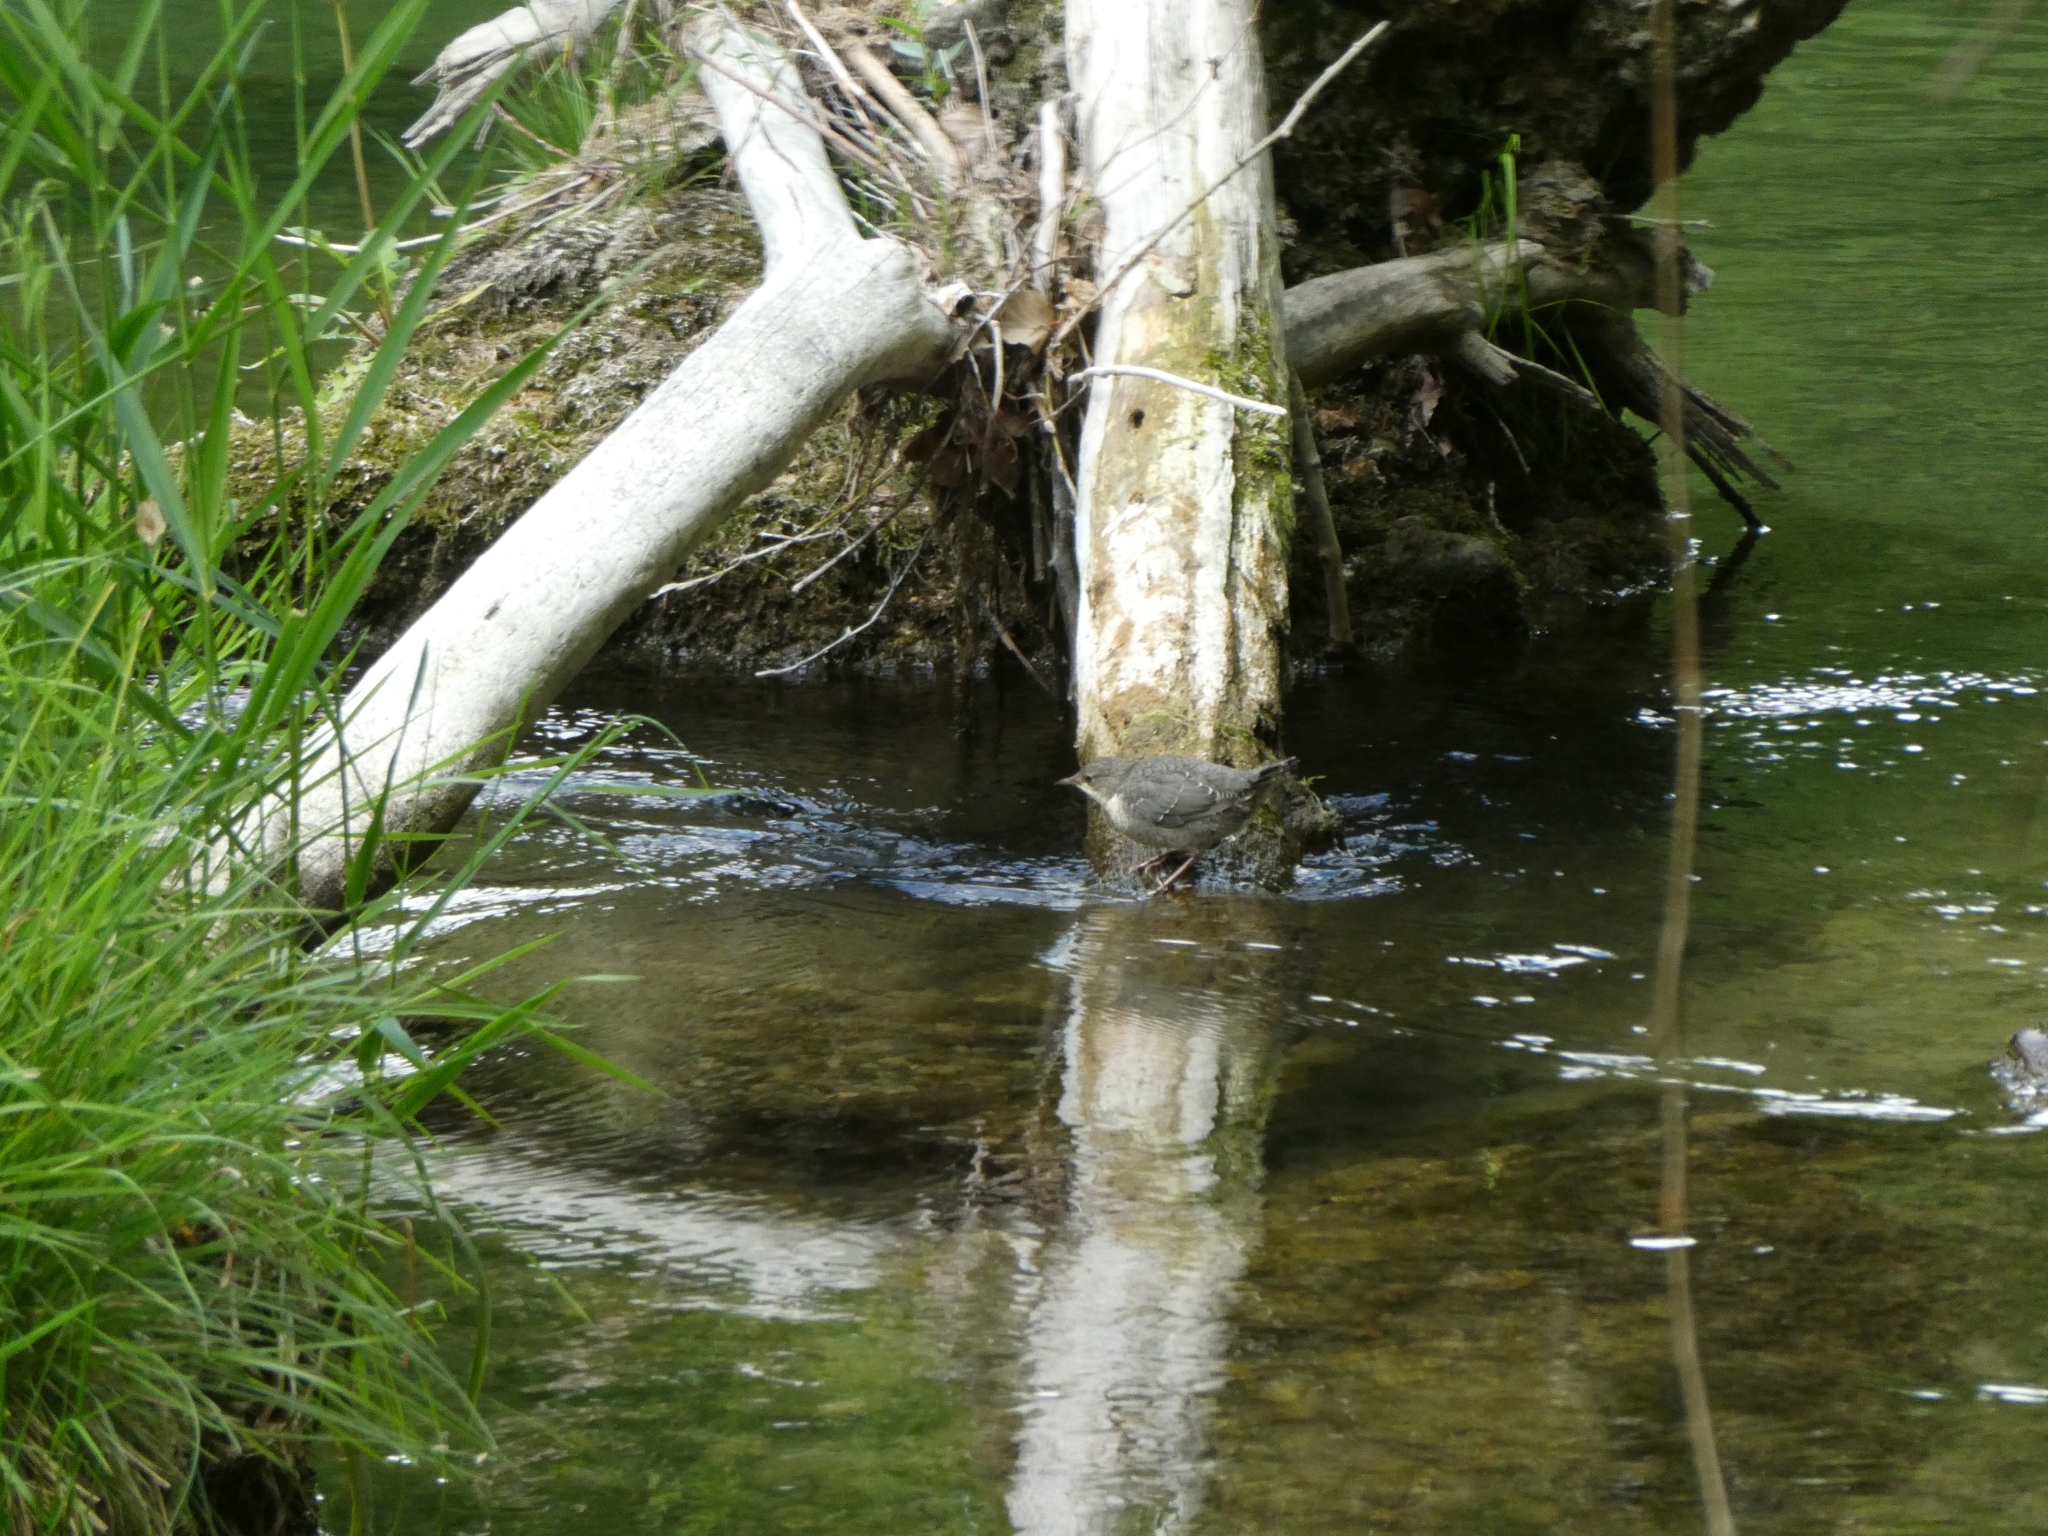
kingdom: Animalia
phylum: Chordata
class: Aves
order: Passeriformes
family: Cinclidae
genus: Cinclus
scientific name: Cinclus cinclus
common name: White-throated dipper
